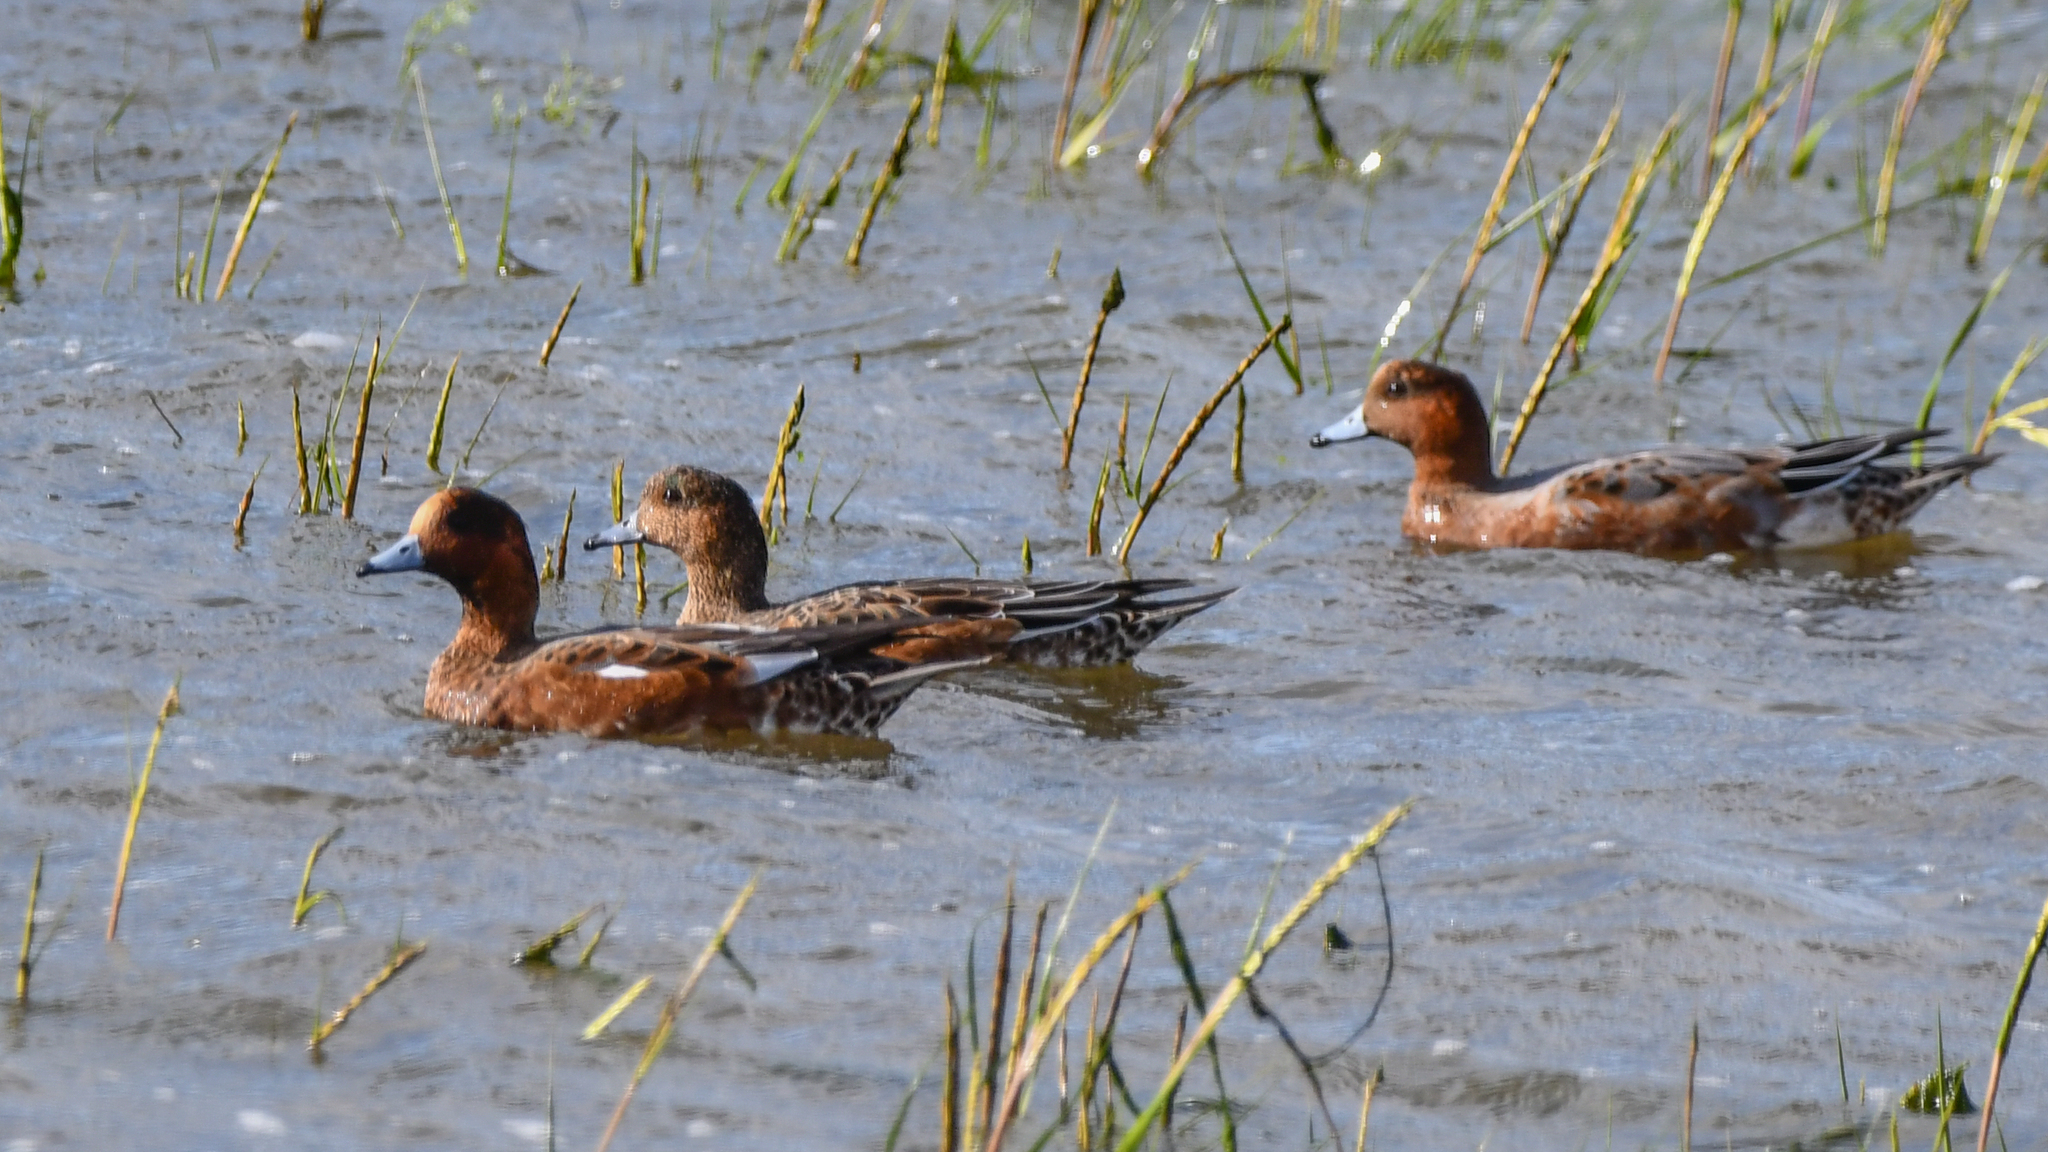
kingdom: Animalia
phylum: Chordata
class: Aves
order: Anseriformes
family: Anatidae
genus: Mareca
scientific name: Mareca penelope
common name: Eurasian wigeon
